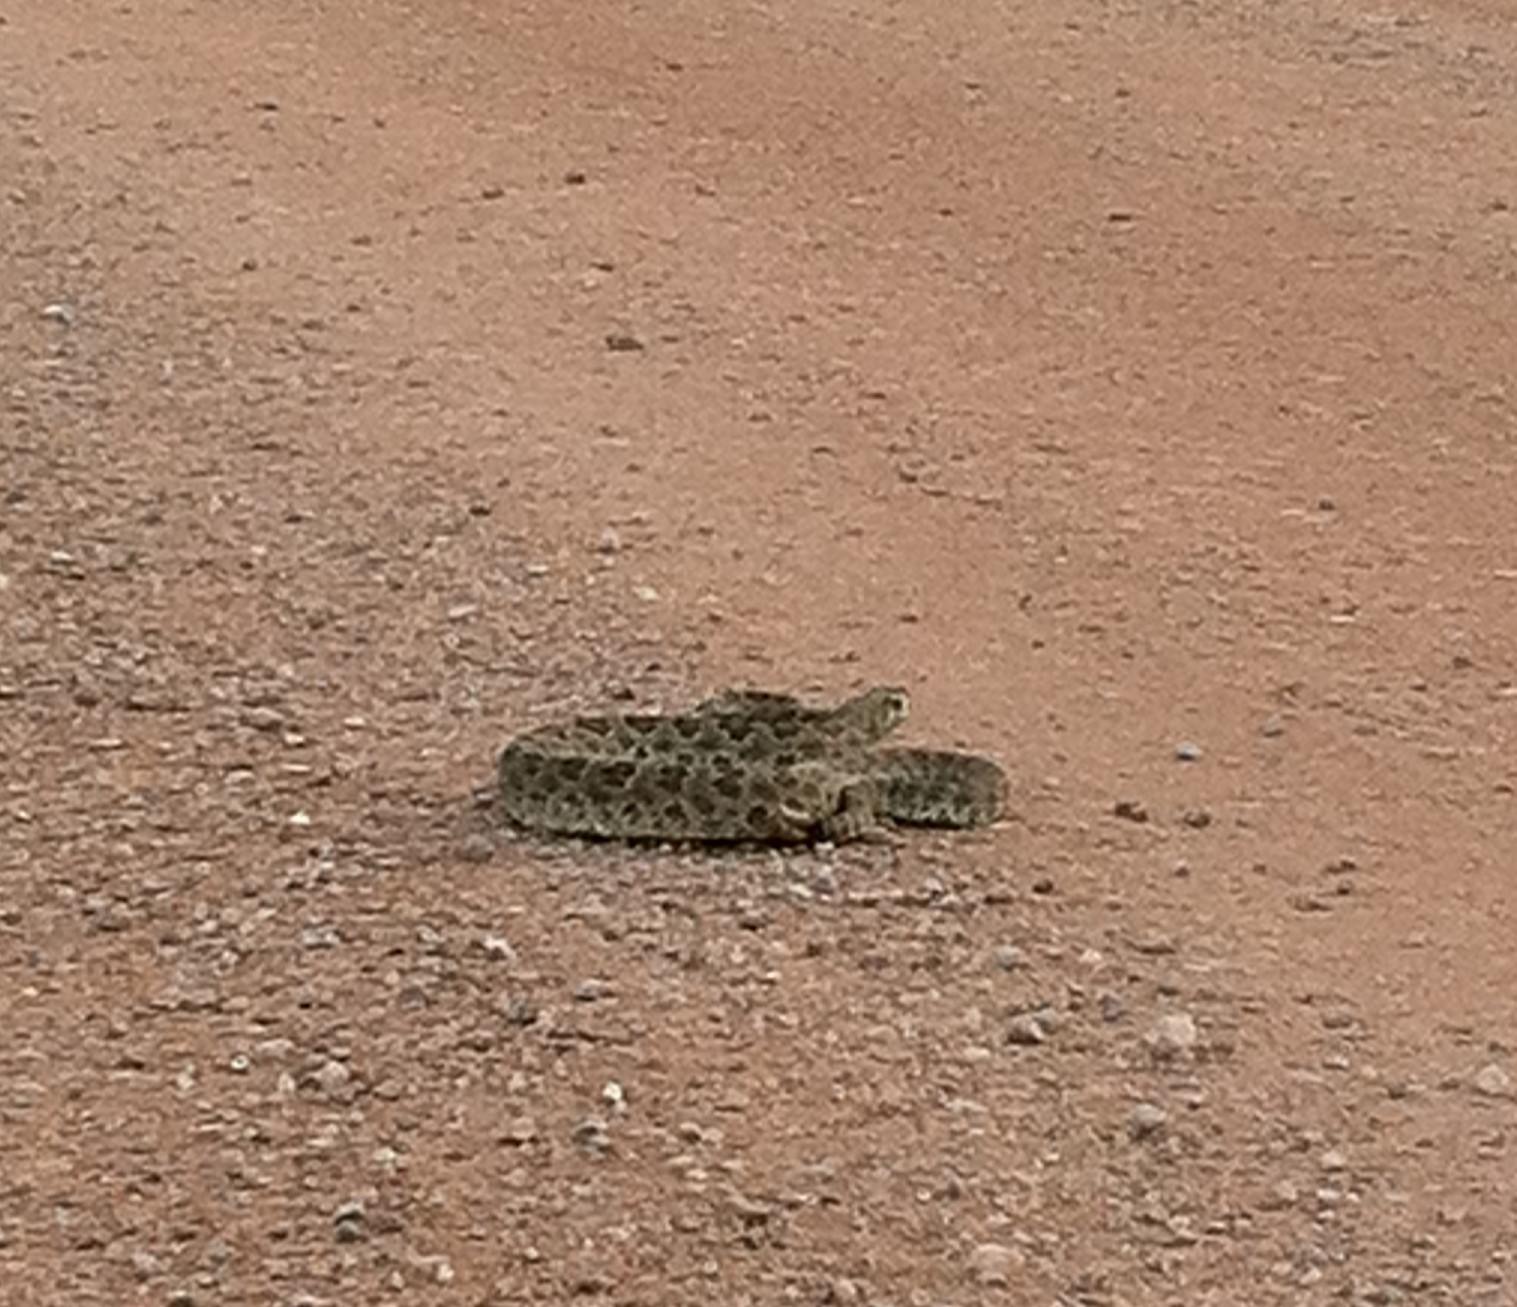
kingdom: Animalia
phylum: Chordata
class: Squamata
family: Viperidae
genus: Crotalus
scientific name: Crotalus viridis
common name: Prairie rattlesnake
